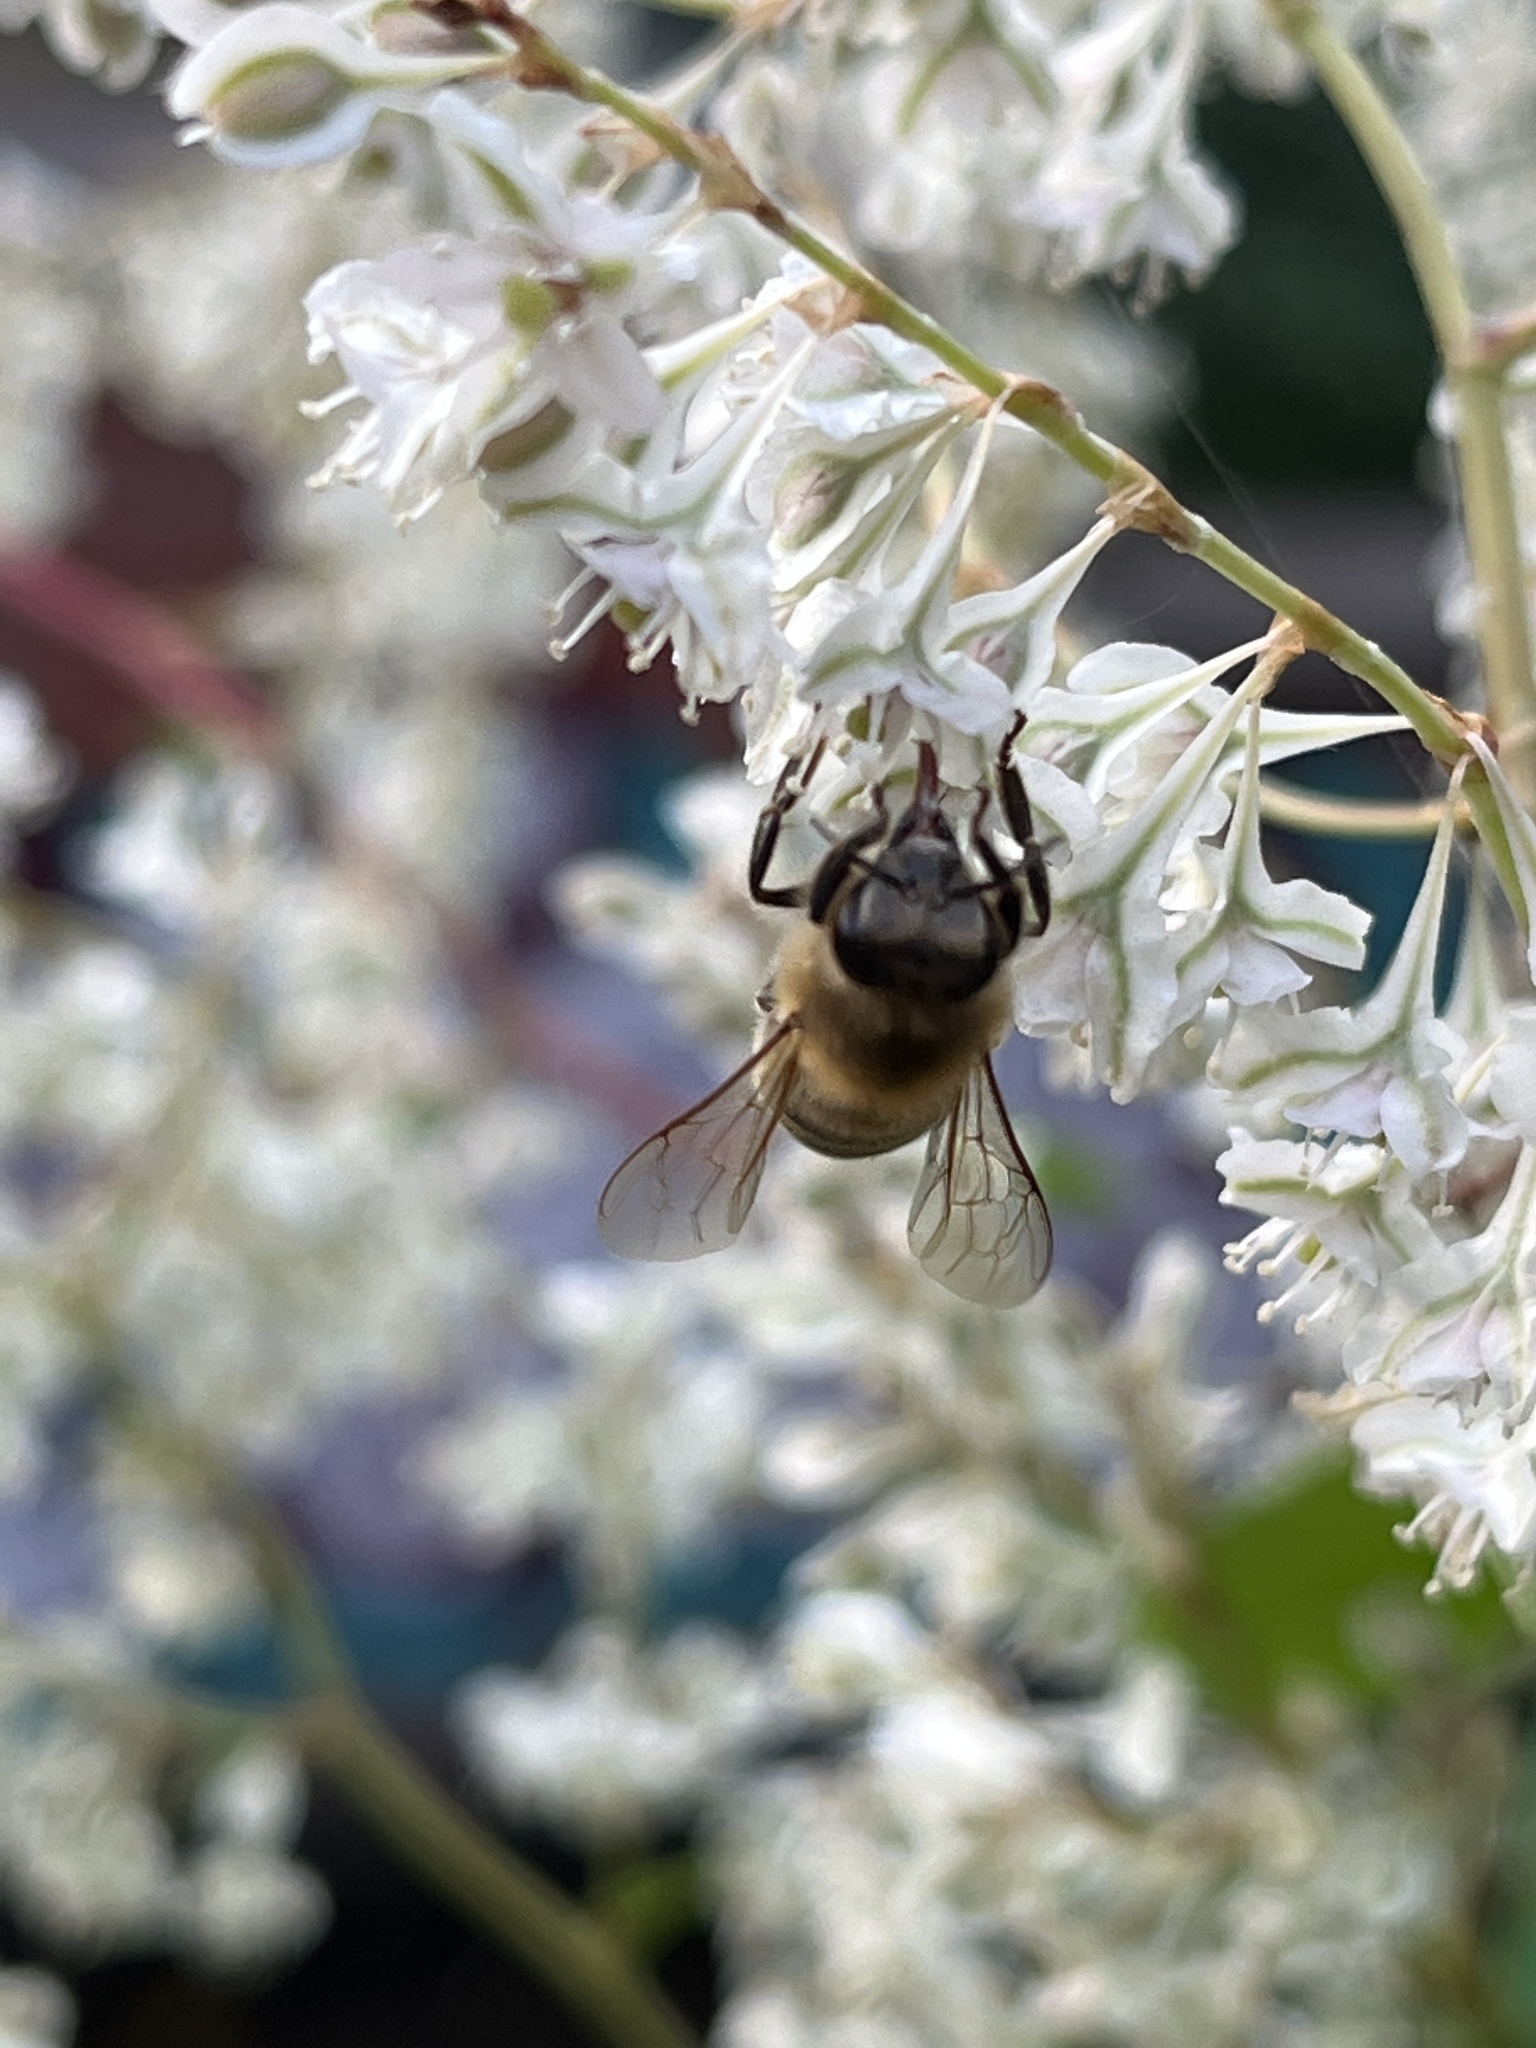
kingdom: Animalia
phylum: Arthropoda
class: Insecta
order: Hymenoptera
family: Apidae
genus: Apis
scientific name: Apis mellifera
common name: Honey bee
